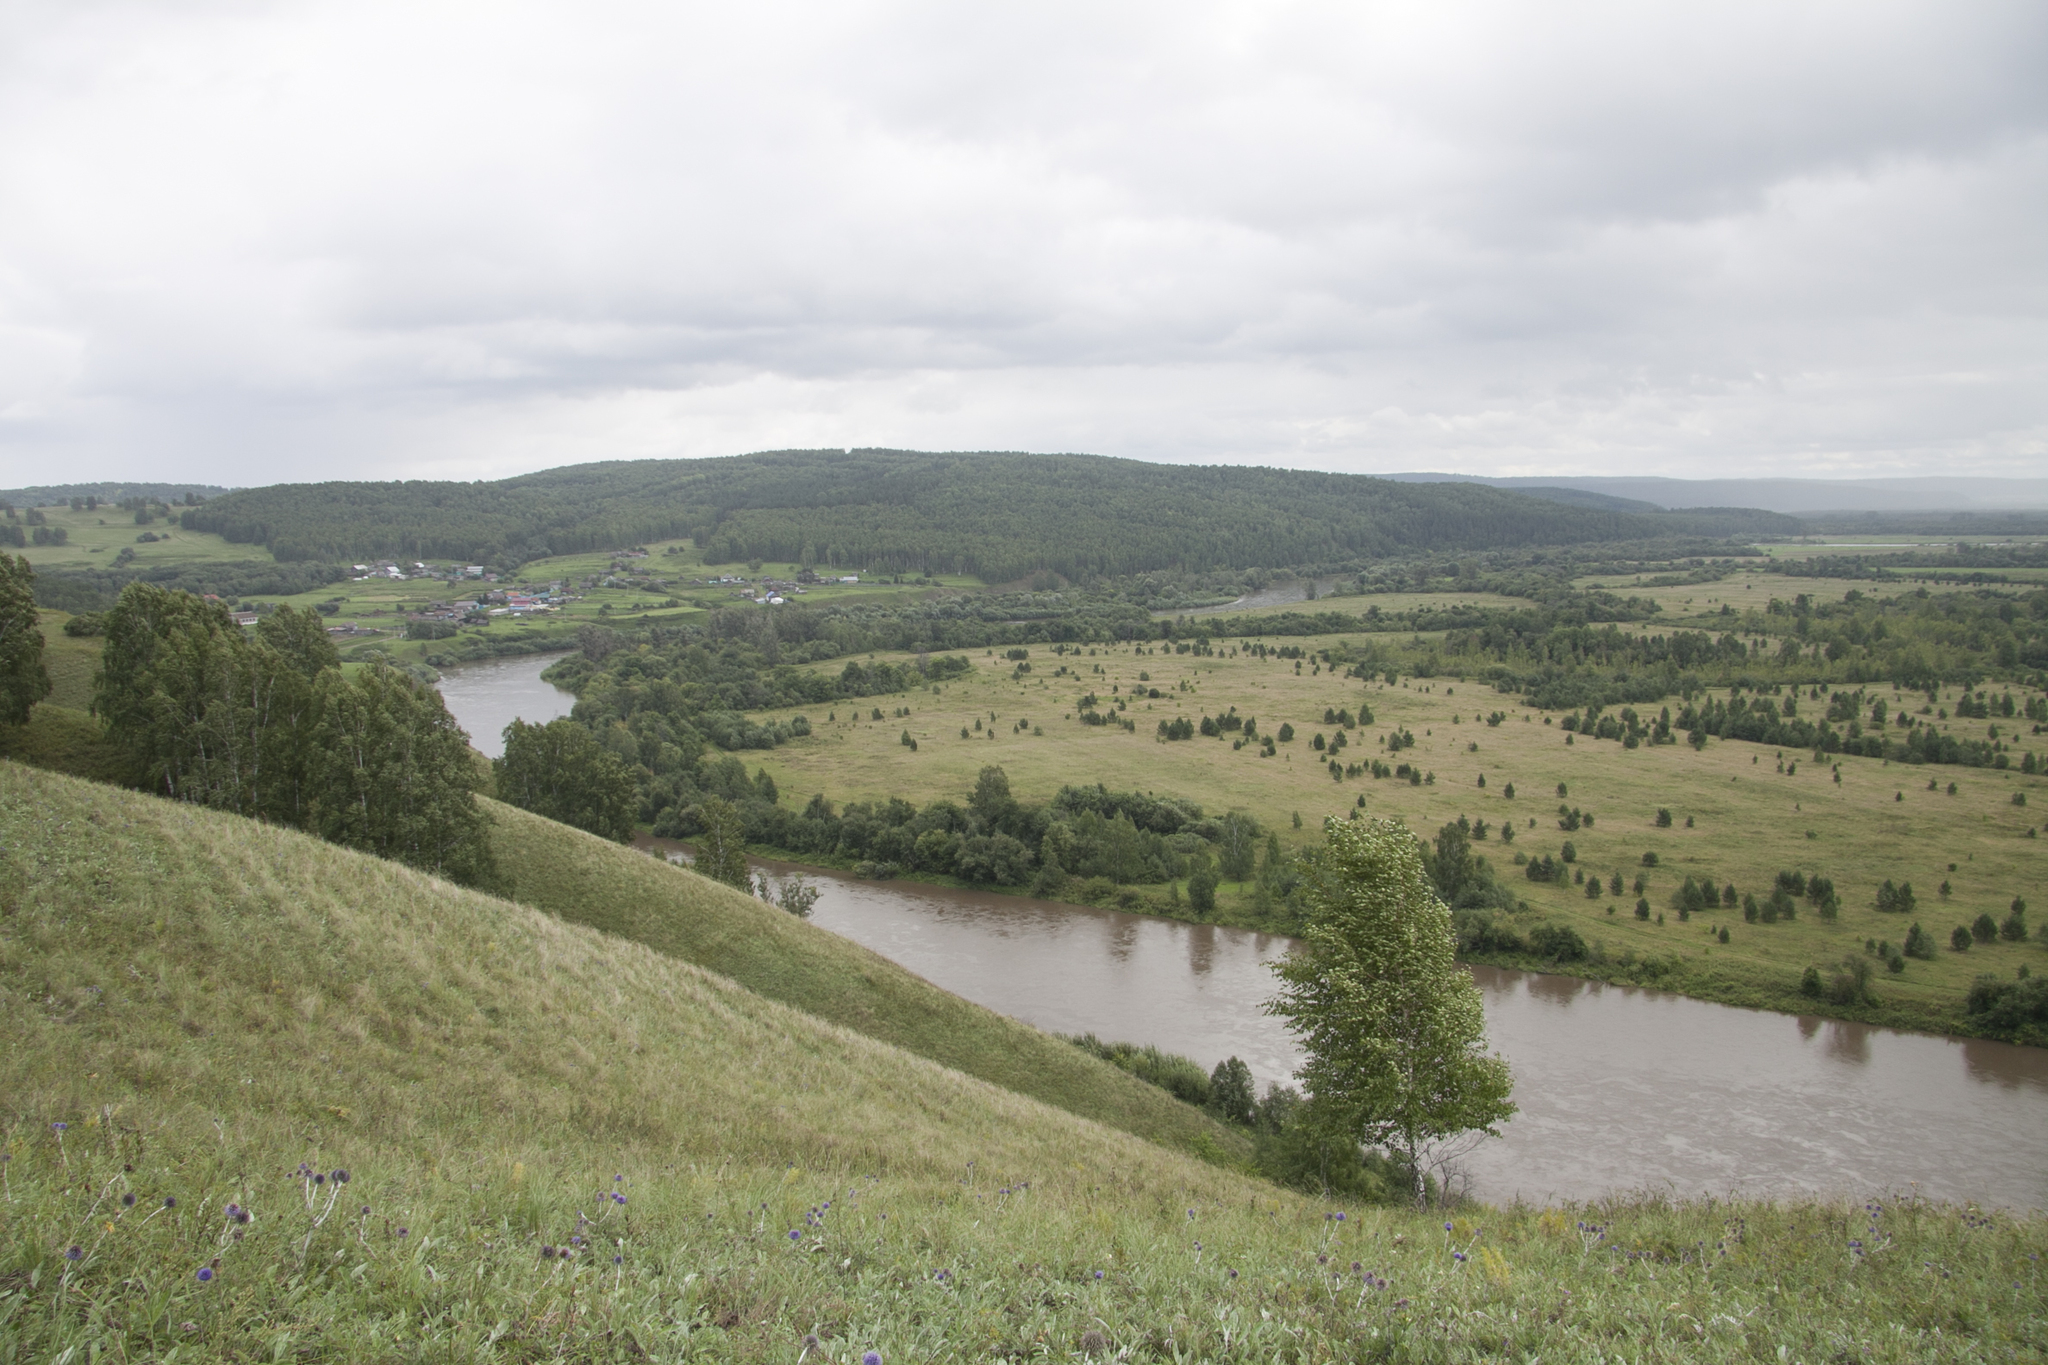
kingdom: Plantae
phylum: Tracheophyta
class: Magnoliopsida
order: Fagales
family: Betulaceae
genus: Betula
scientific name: Betula pendula
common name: Silver birch
